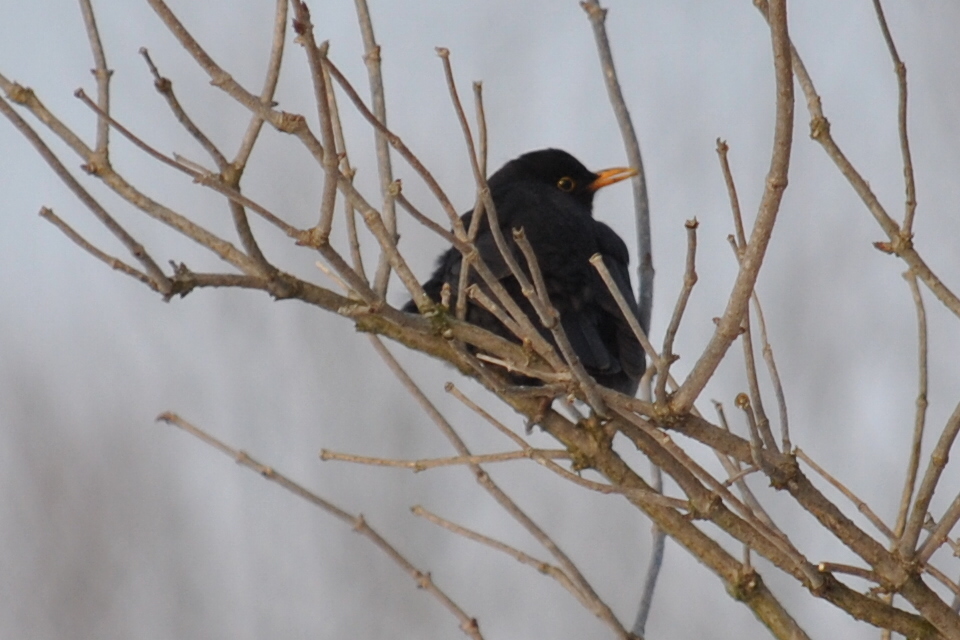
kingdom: Animalia
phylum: Chordata
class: Aves
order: Passeriformes
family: Turdidae
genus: Turdus
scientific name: Turdus merula
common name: Common blackbird
